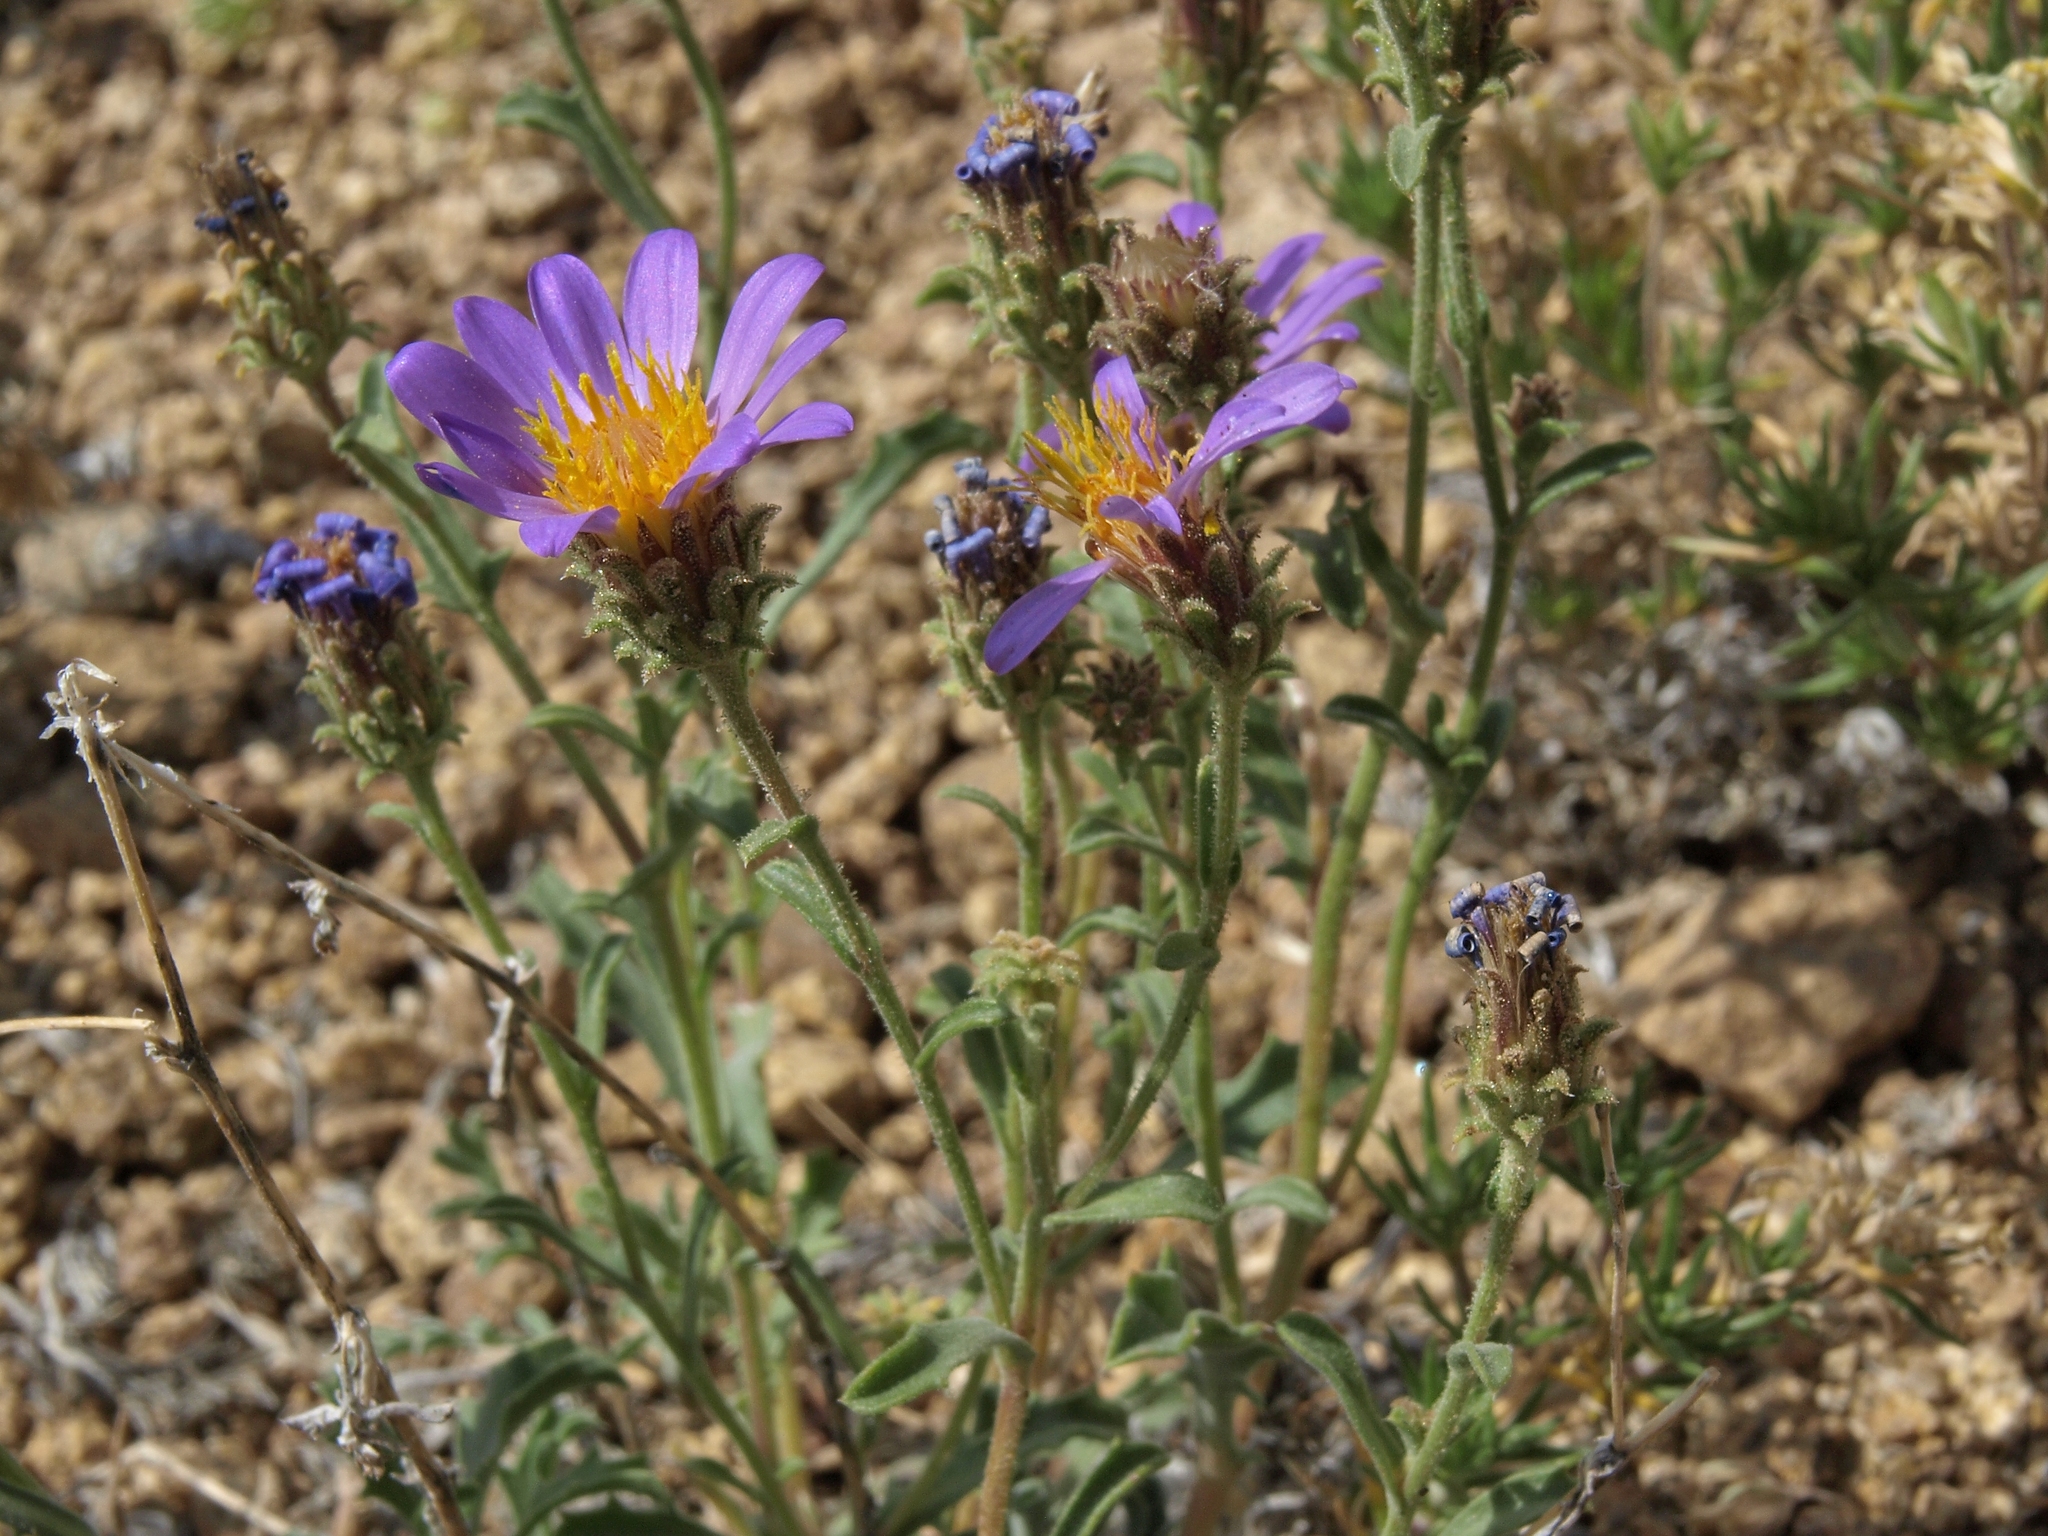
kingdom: Plantae
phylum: Tracheophyta
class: Magnoliopsida
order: Asterales
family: Asteraceae
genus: Dieteria
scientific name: Dieteria canescens
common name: Hoary-aster
